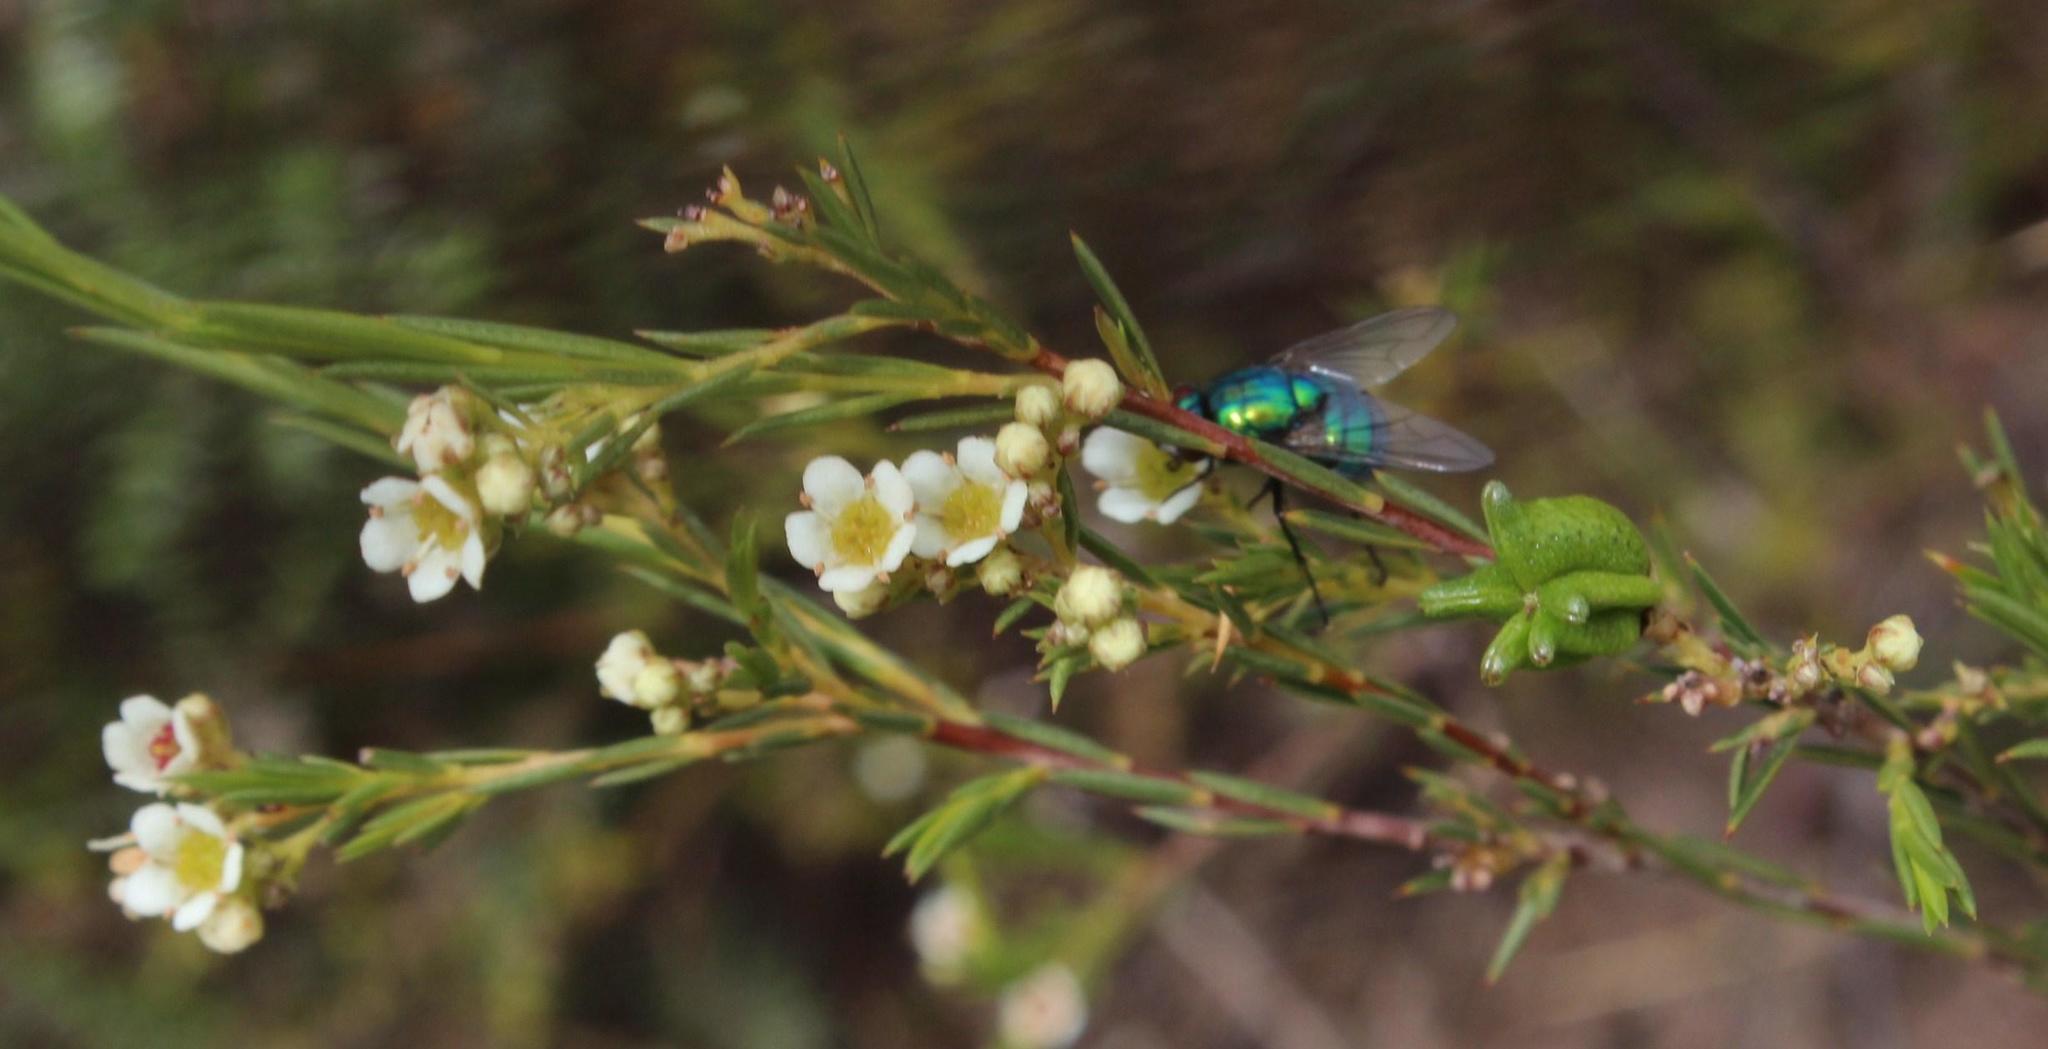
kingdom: Plantae
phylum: Tracheophyta
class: Magnoliopsida
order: Sapindales
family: Rutaceae
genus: Diosma
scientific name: Diosma hirsuta
